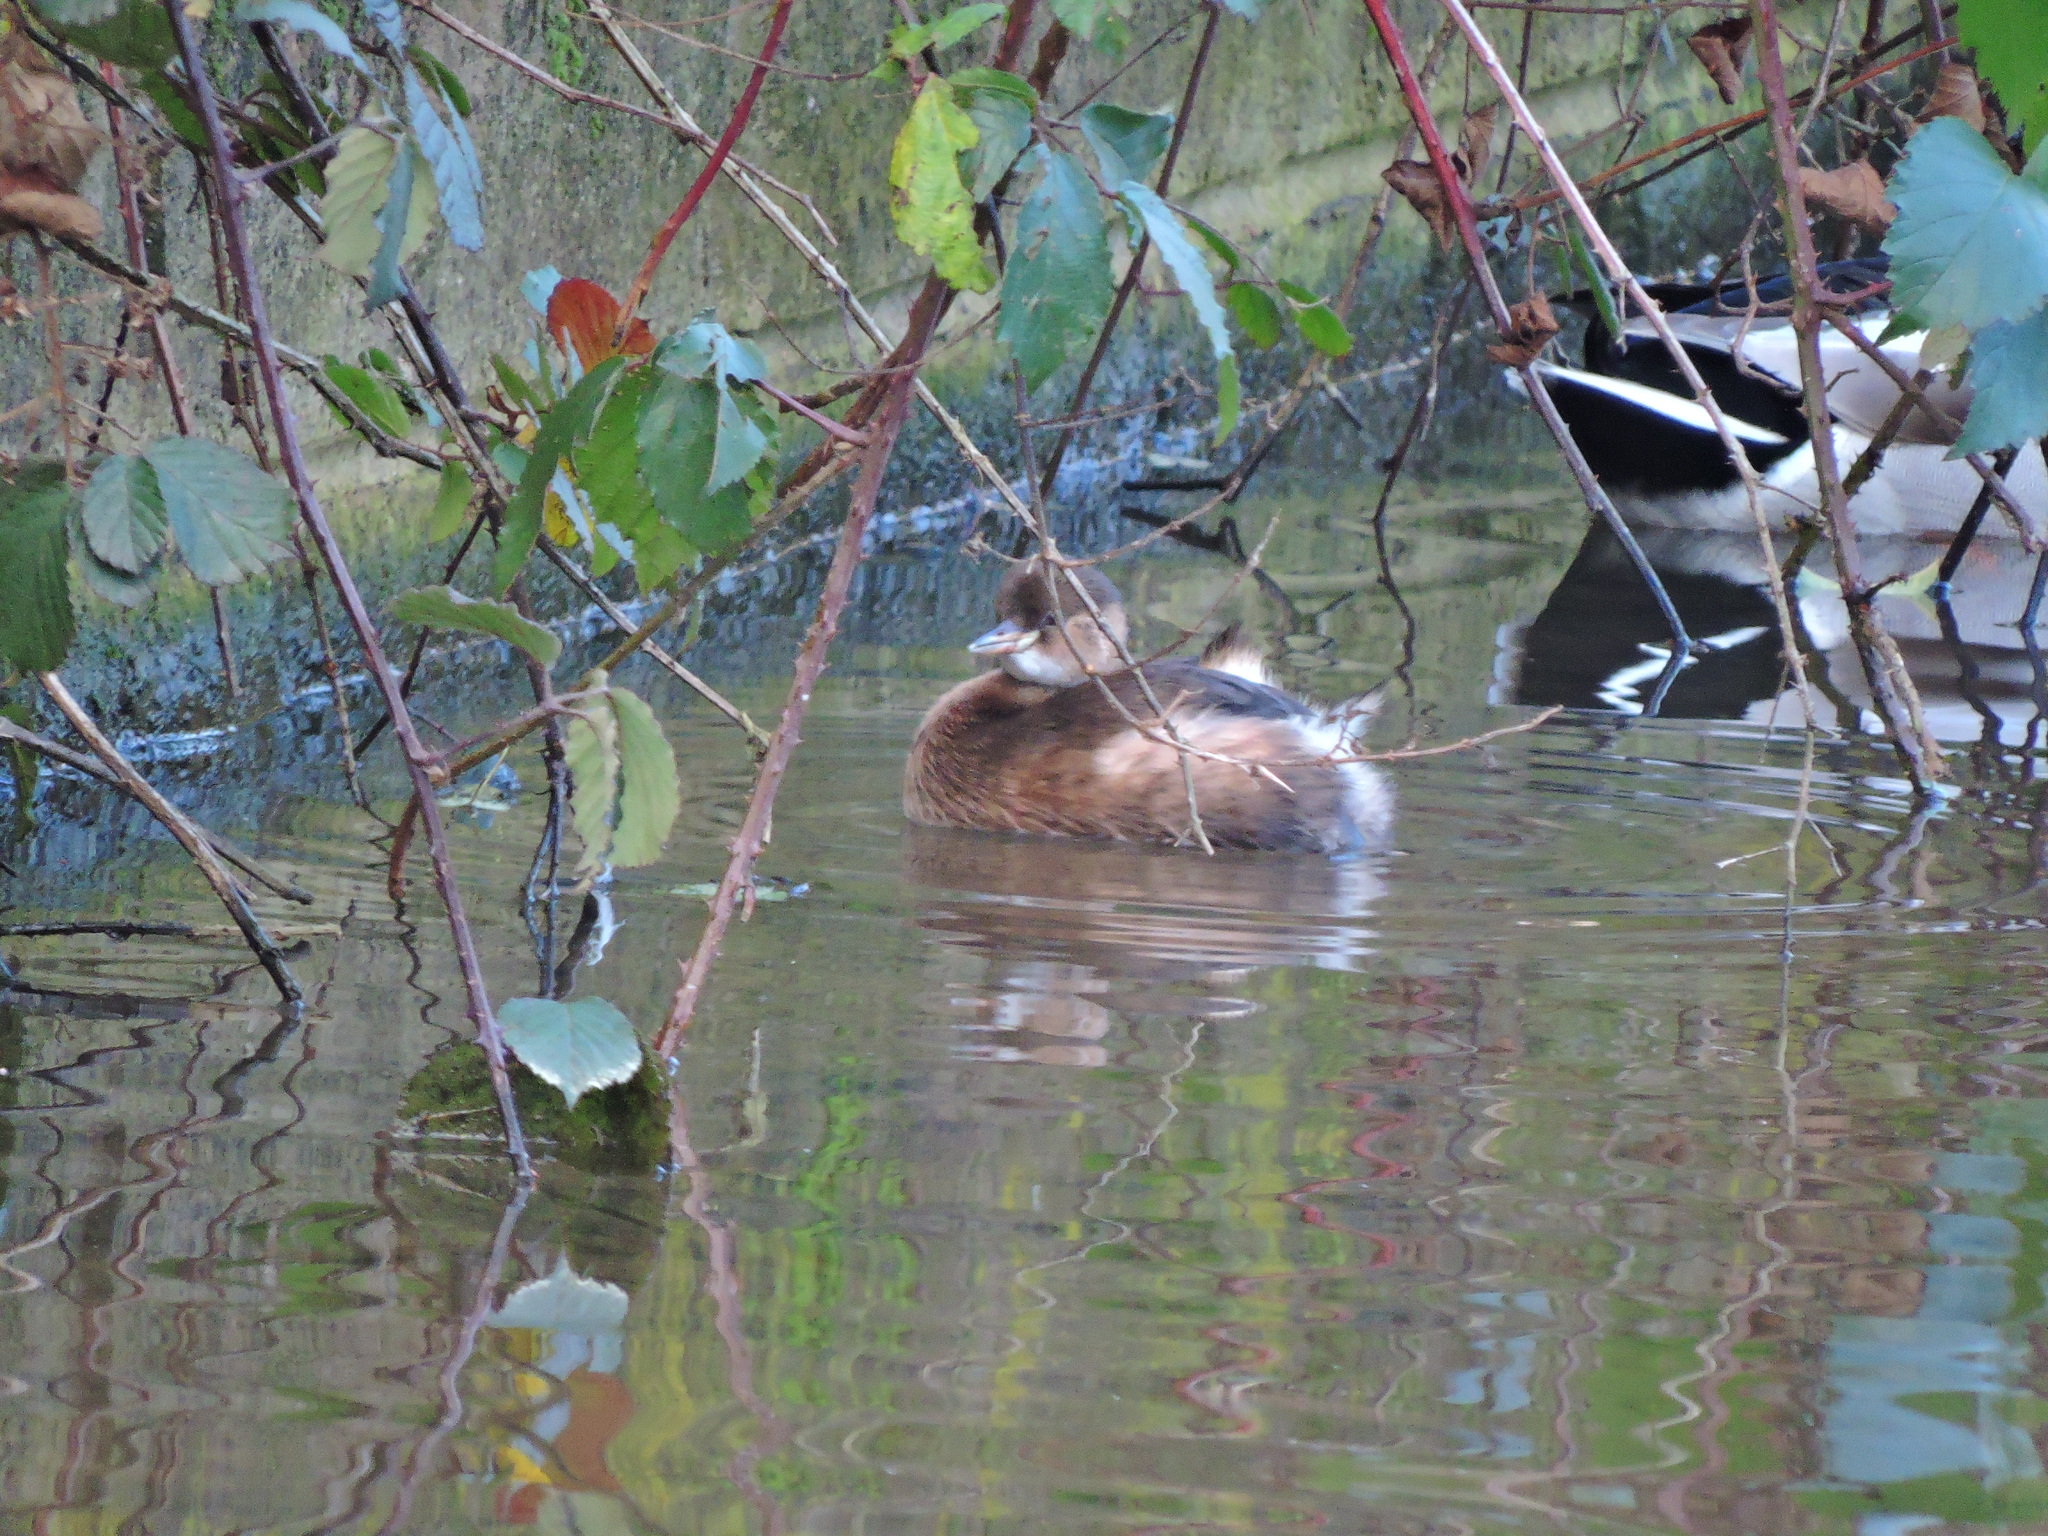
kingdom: Animalia
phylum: Chordata
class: Aves
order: Podicipediformes
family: Podicipedidae
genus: Tachybaptus
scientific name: Tachybaptus ruficollis
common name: Little grebe
